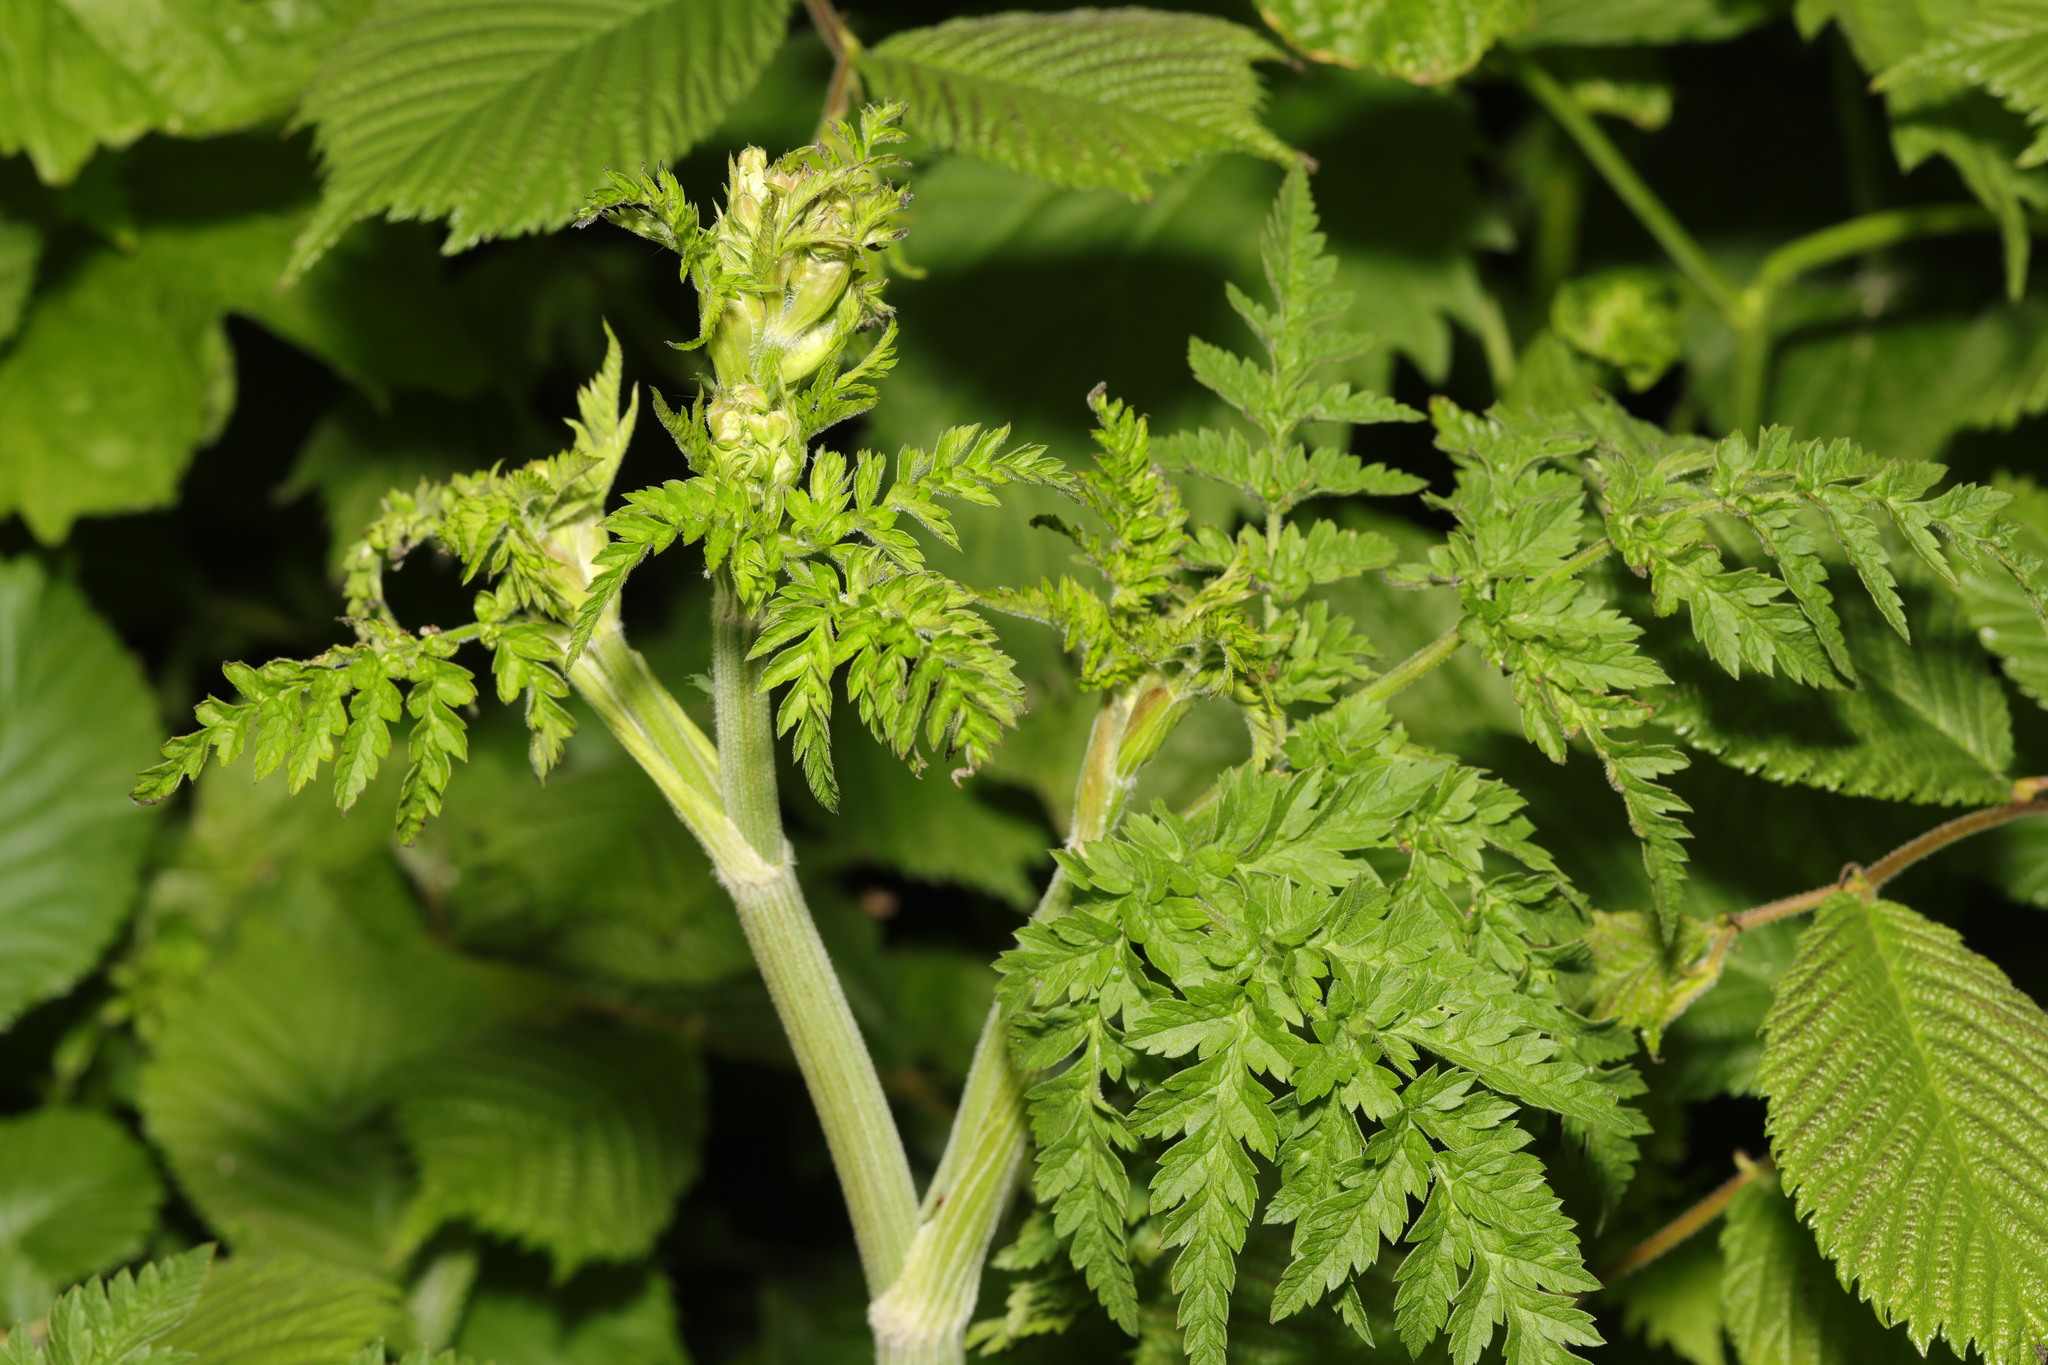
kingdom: Plantae
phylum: Tracheophyta
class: Magnoliopsida
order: Apiales
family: Apiaceae
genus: Anthriscus
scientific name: Anthriscus sylvestris
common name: Cow parsley
